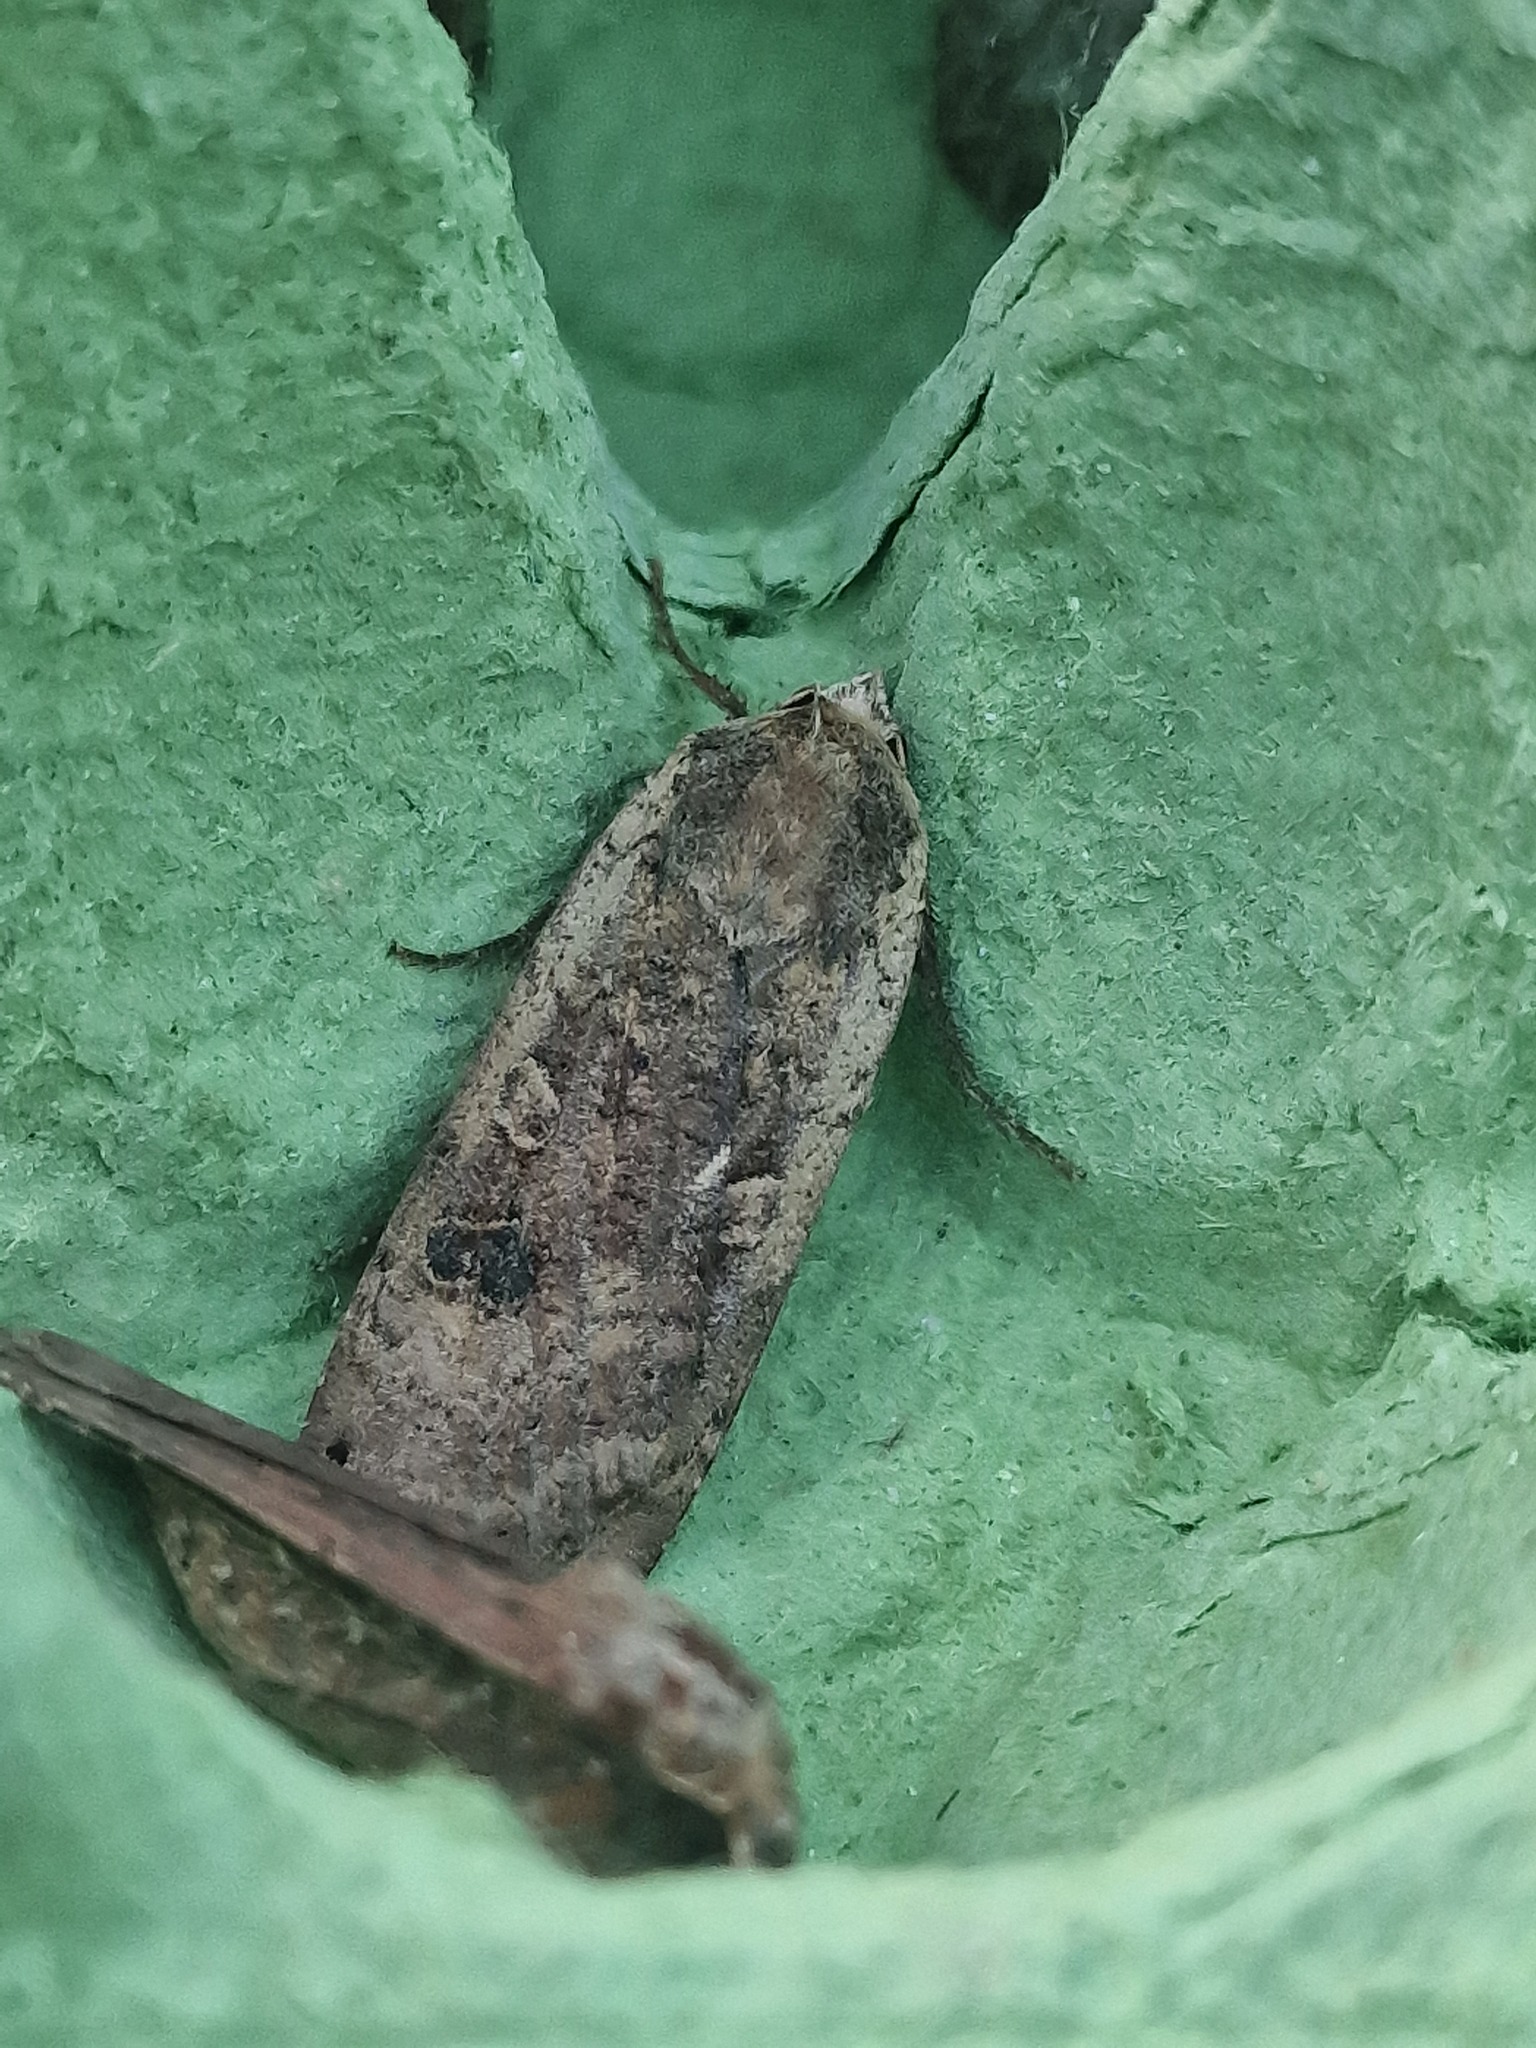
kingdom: Animalia
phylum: Arthropoda
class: Insecta
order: Lepidoptera
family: Noctuidae
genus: Noctua
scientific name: Noctua pronuba
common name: Large yellow underwing
